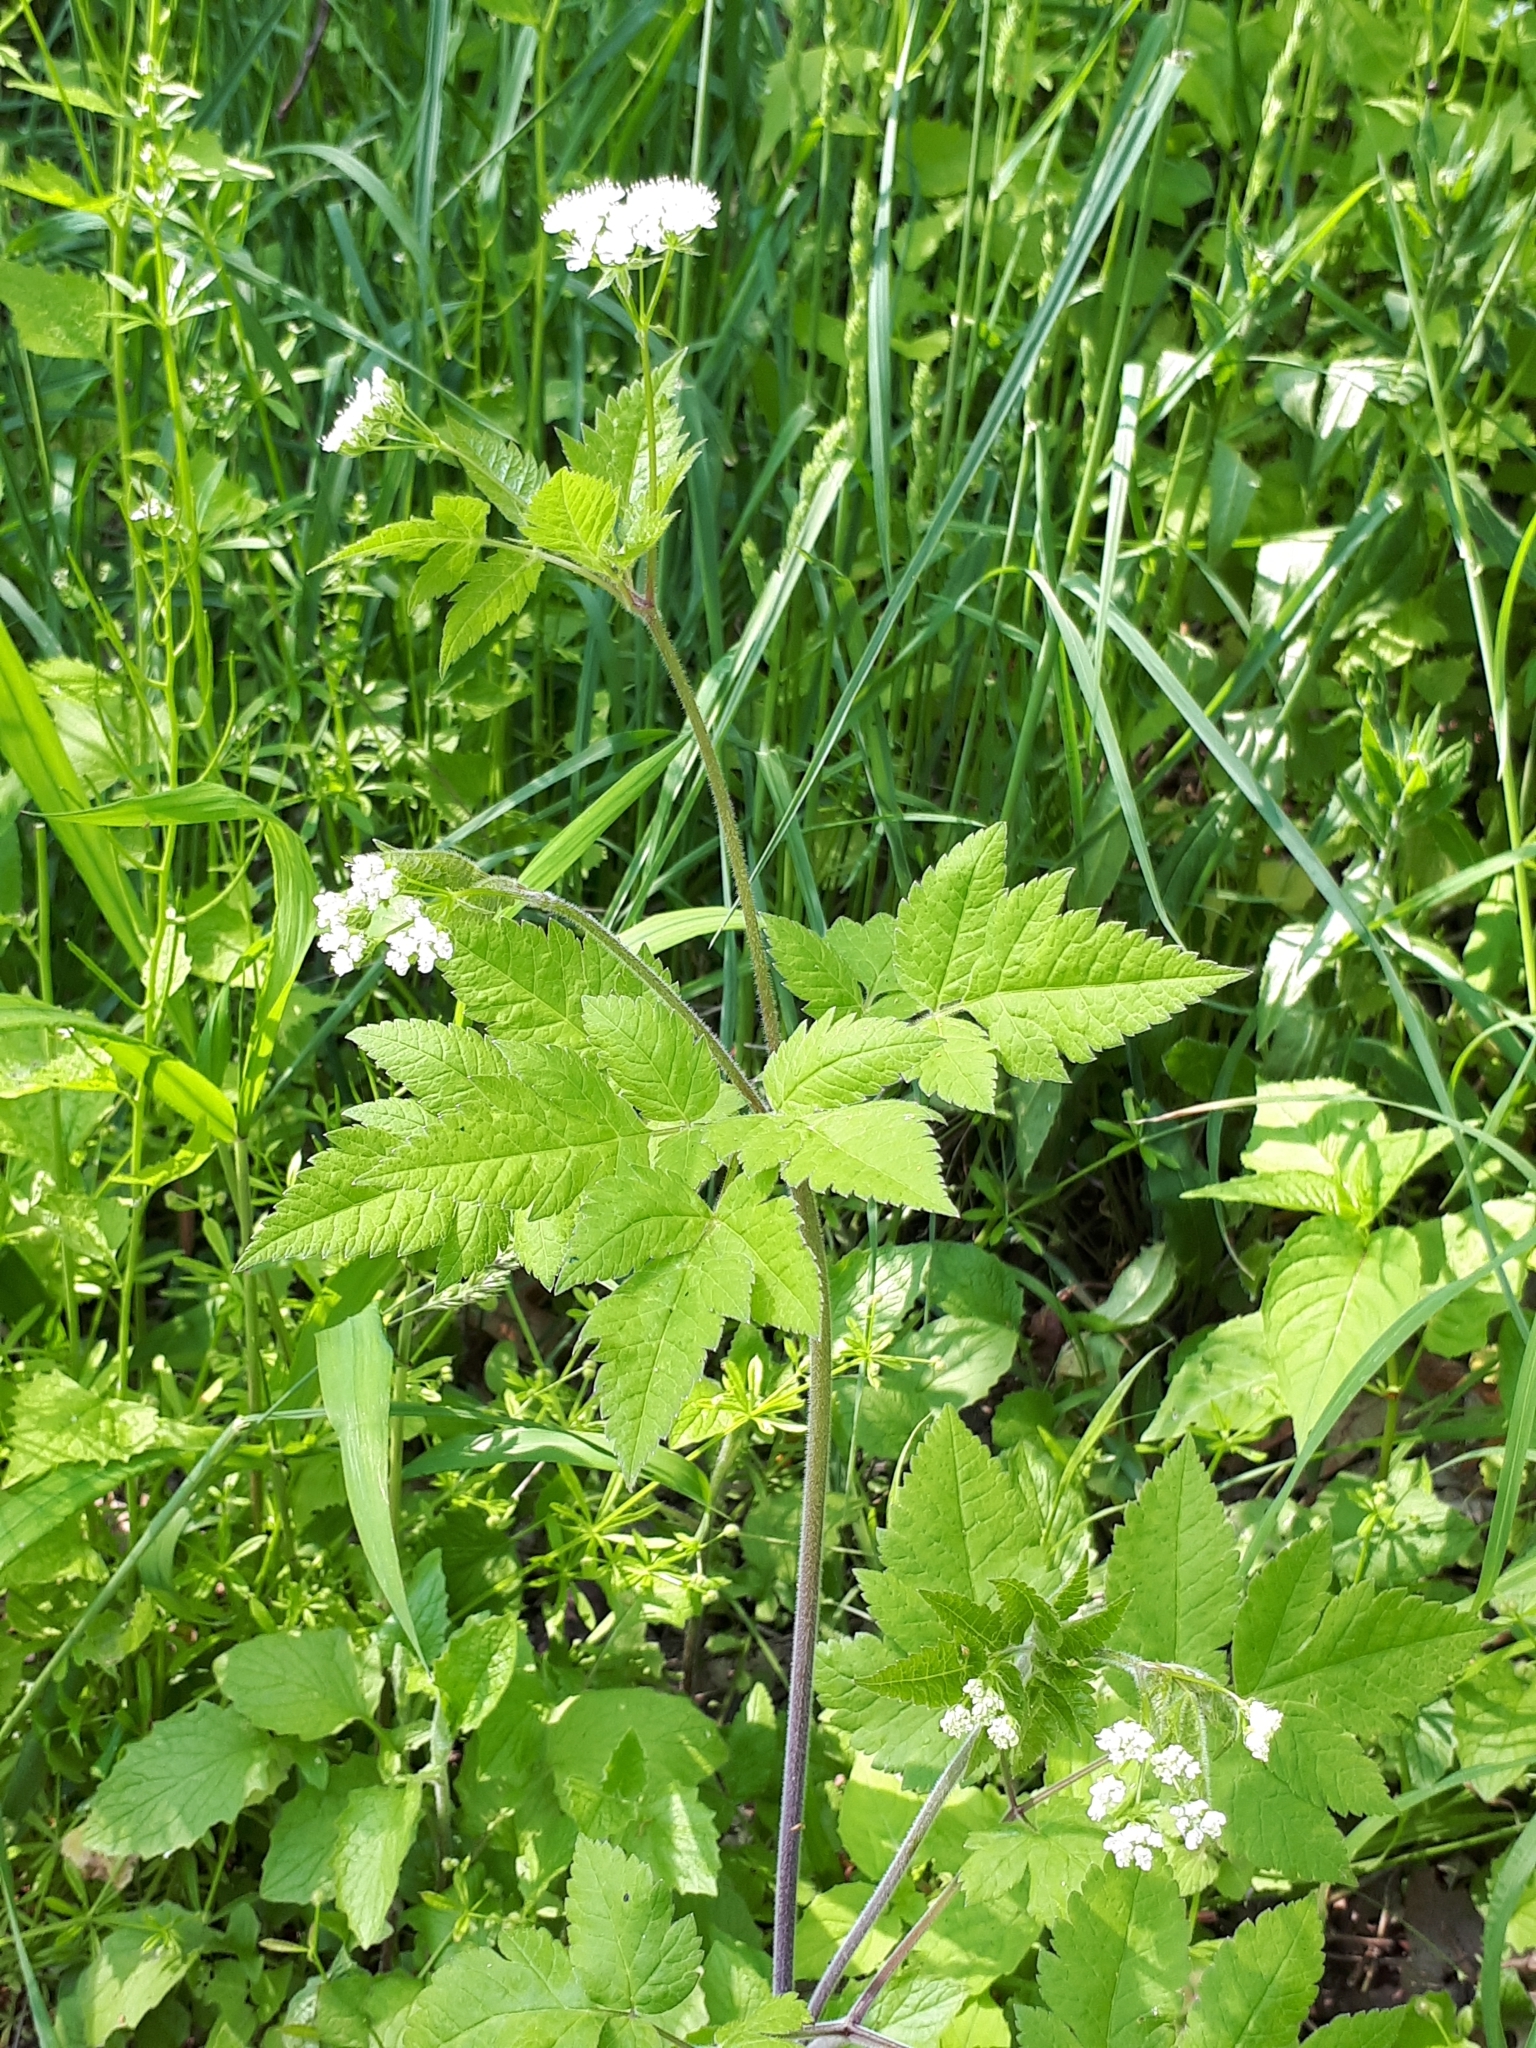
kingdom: Plantae
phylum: Tracheophyta
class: Magnoliopsida
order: Apiales
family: Apiaceae
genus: Osmorhiza
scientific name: Osmorhiza longistylis
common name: Smooth sweet cicely
